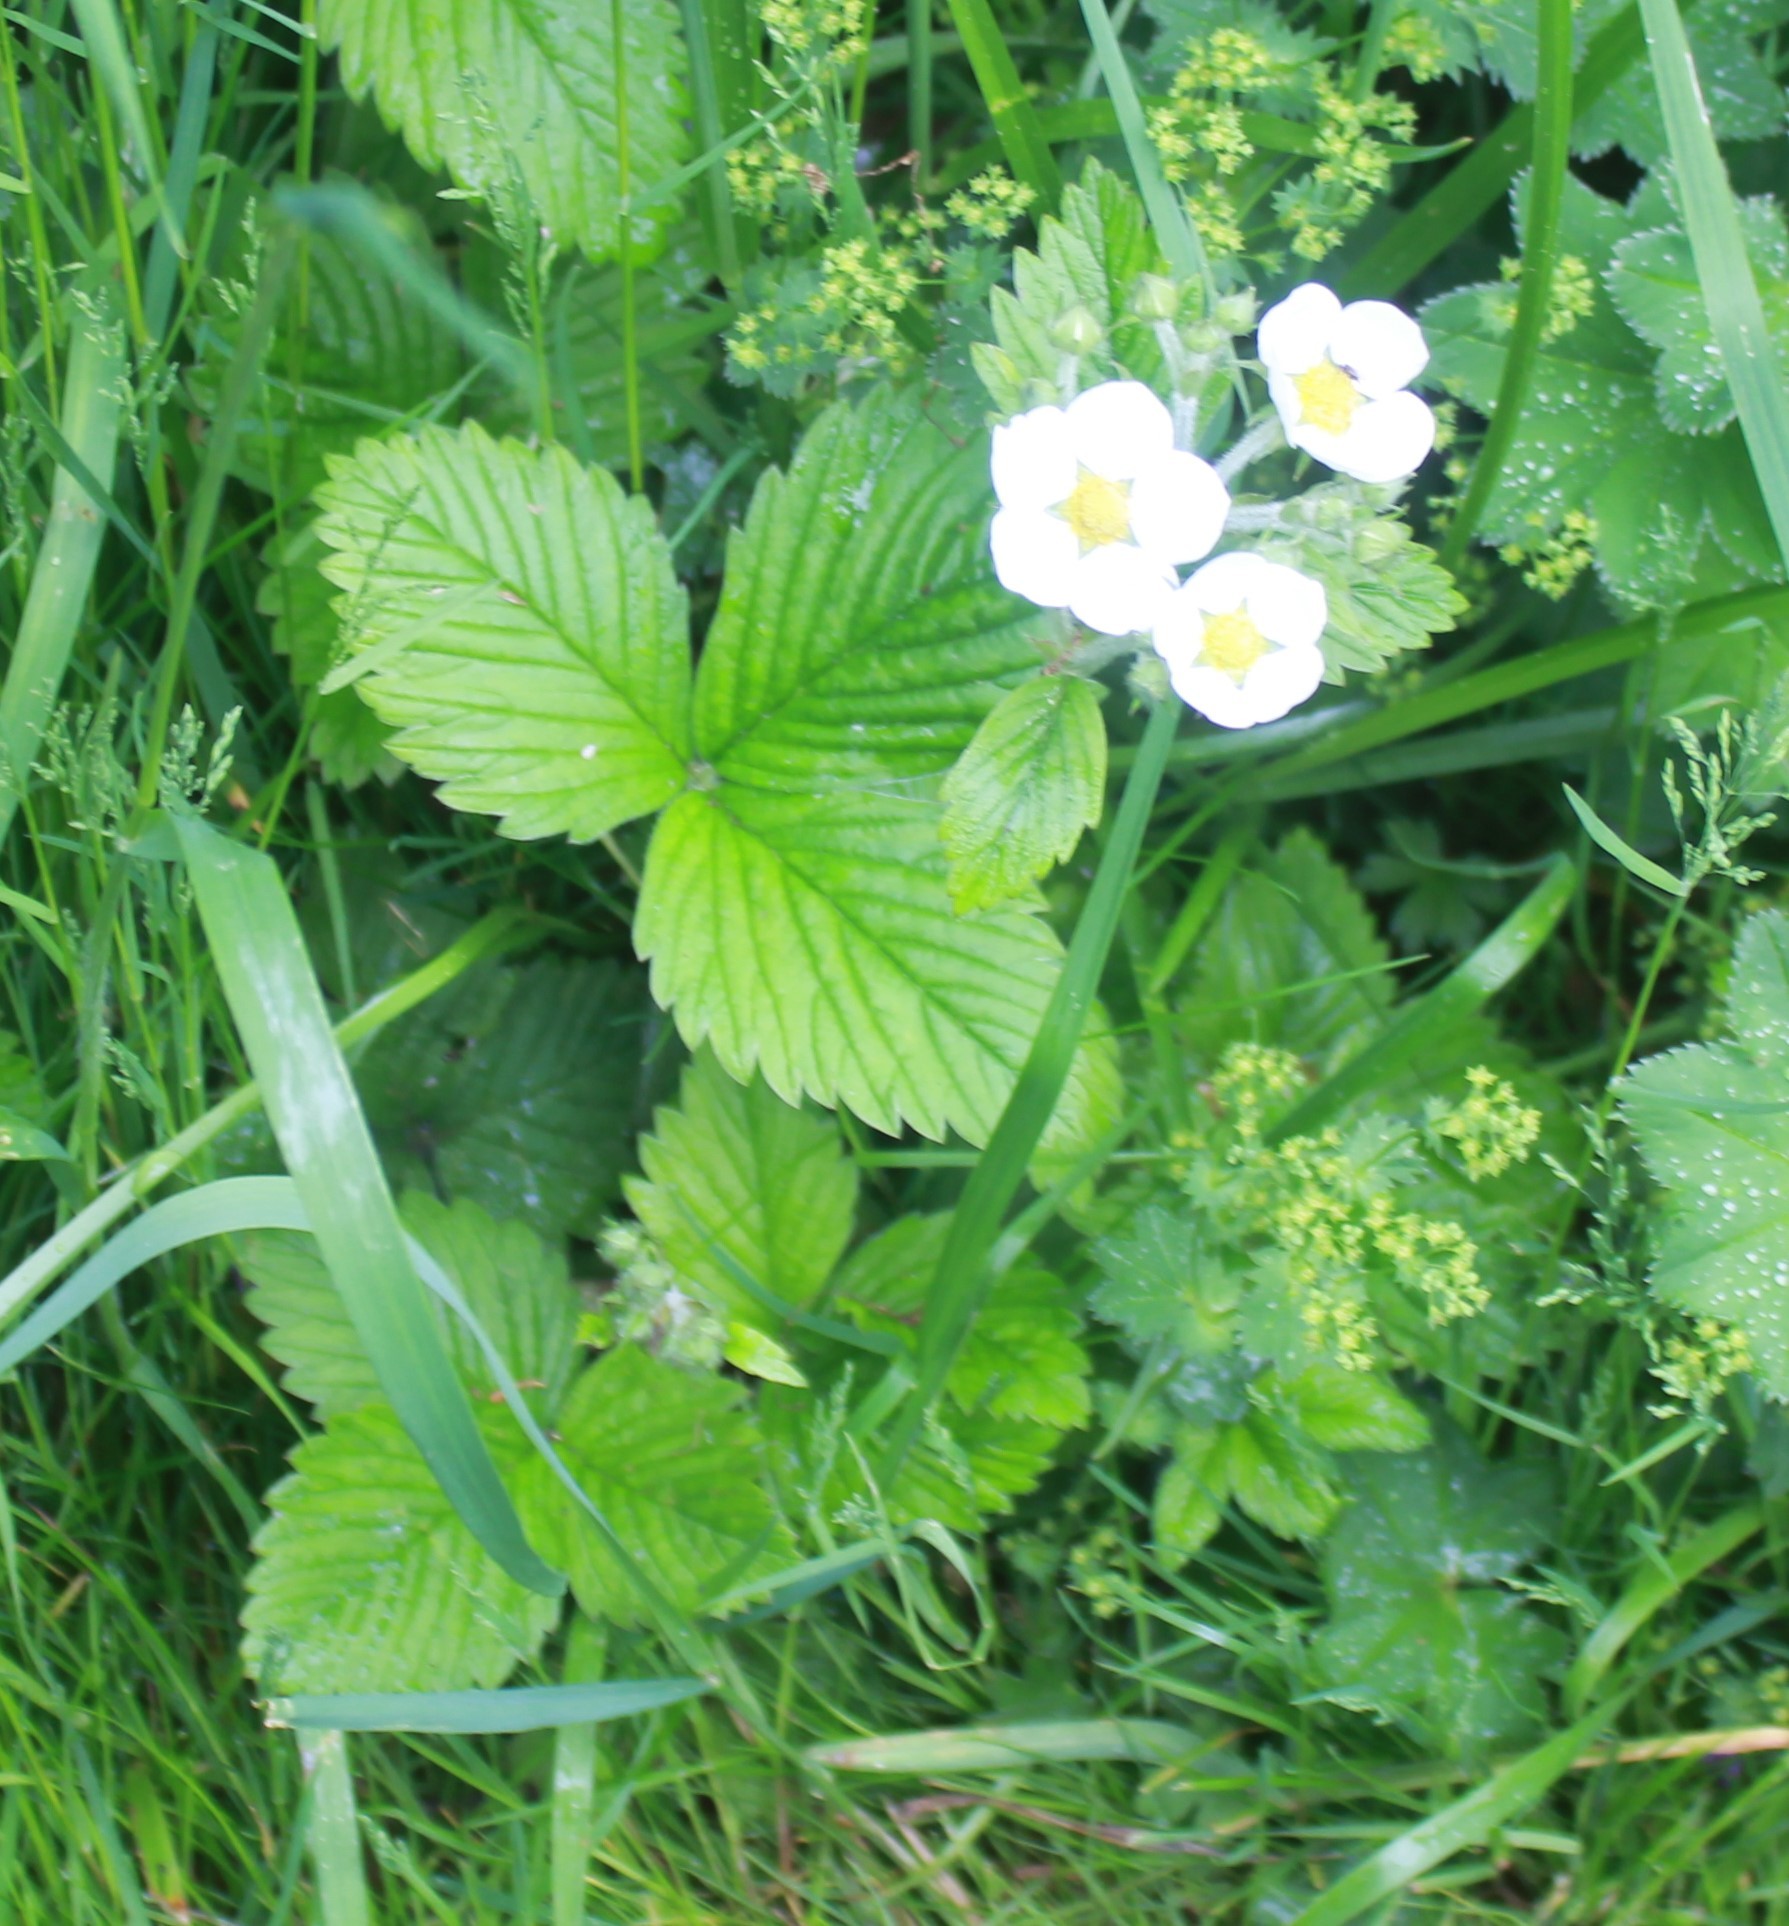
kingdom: Plantae
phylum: Tracheophyta
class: Magnoliopsida
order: Rosales
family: Rosaceae
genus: Fragaria
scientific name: Fragaria moschata
